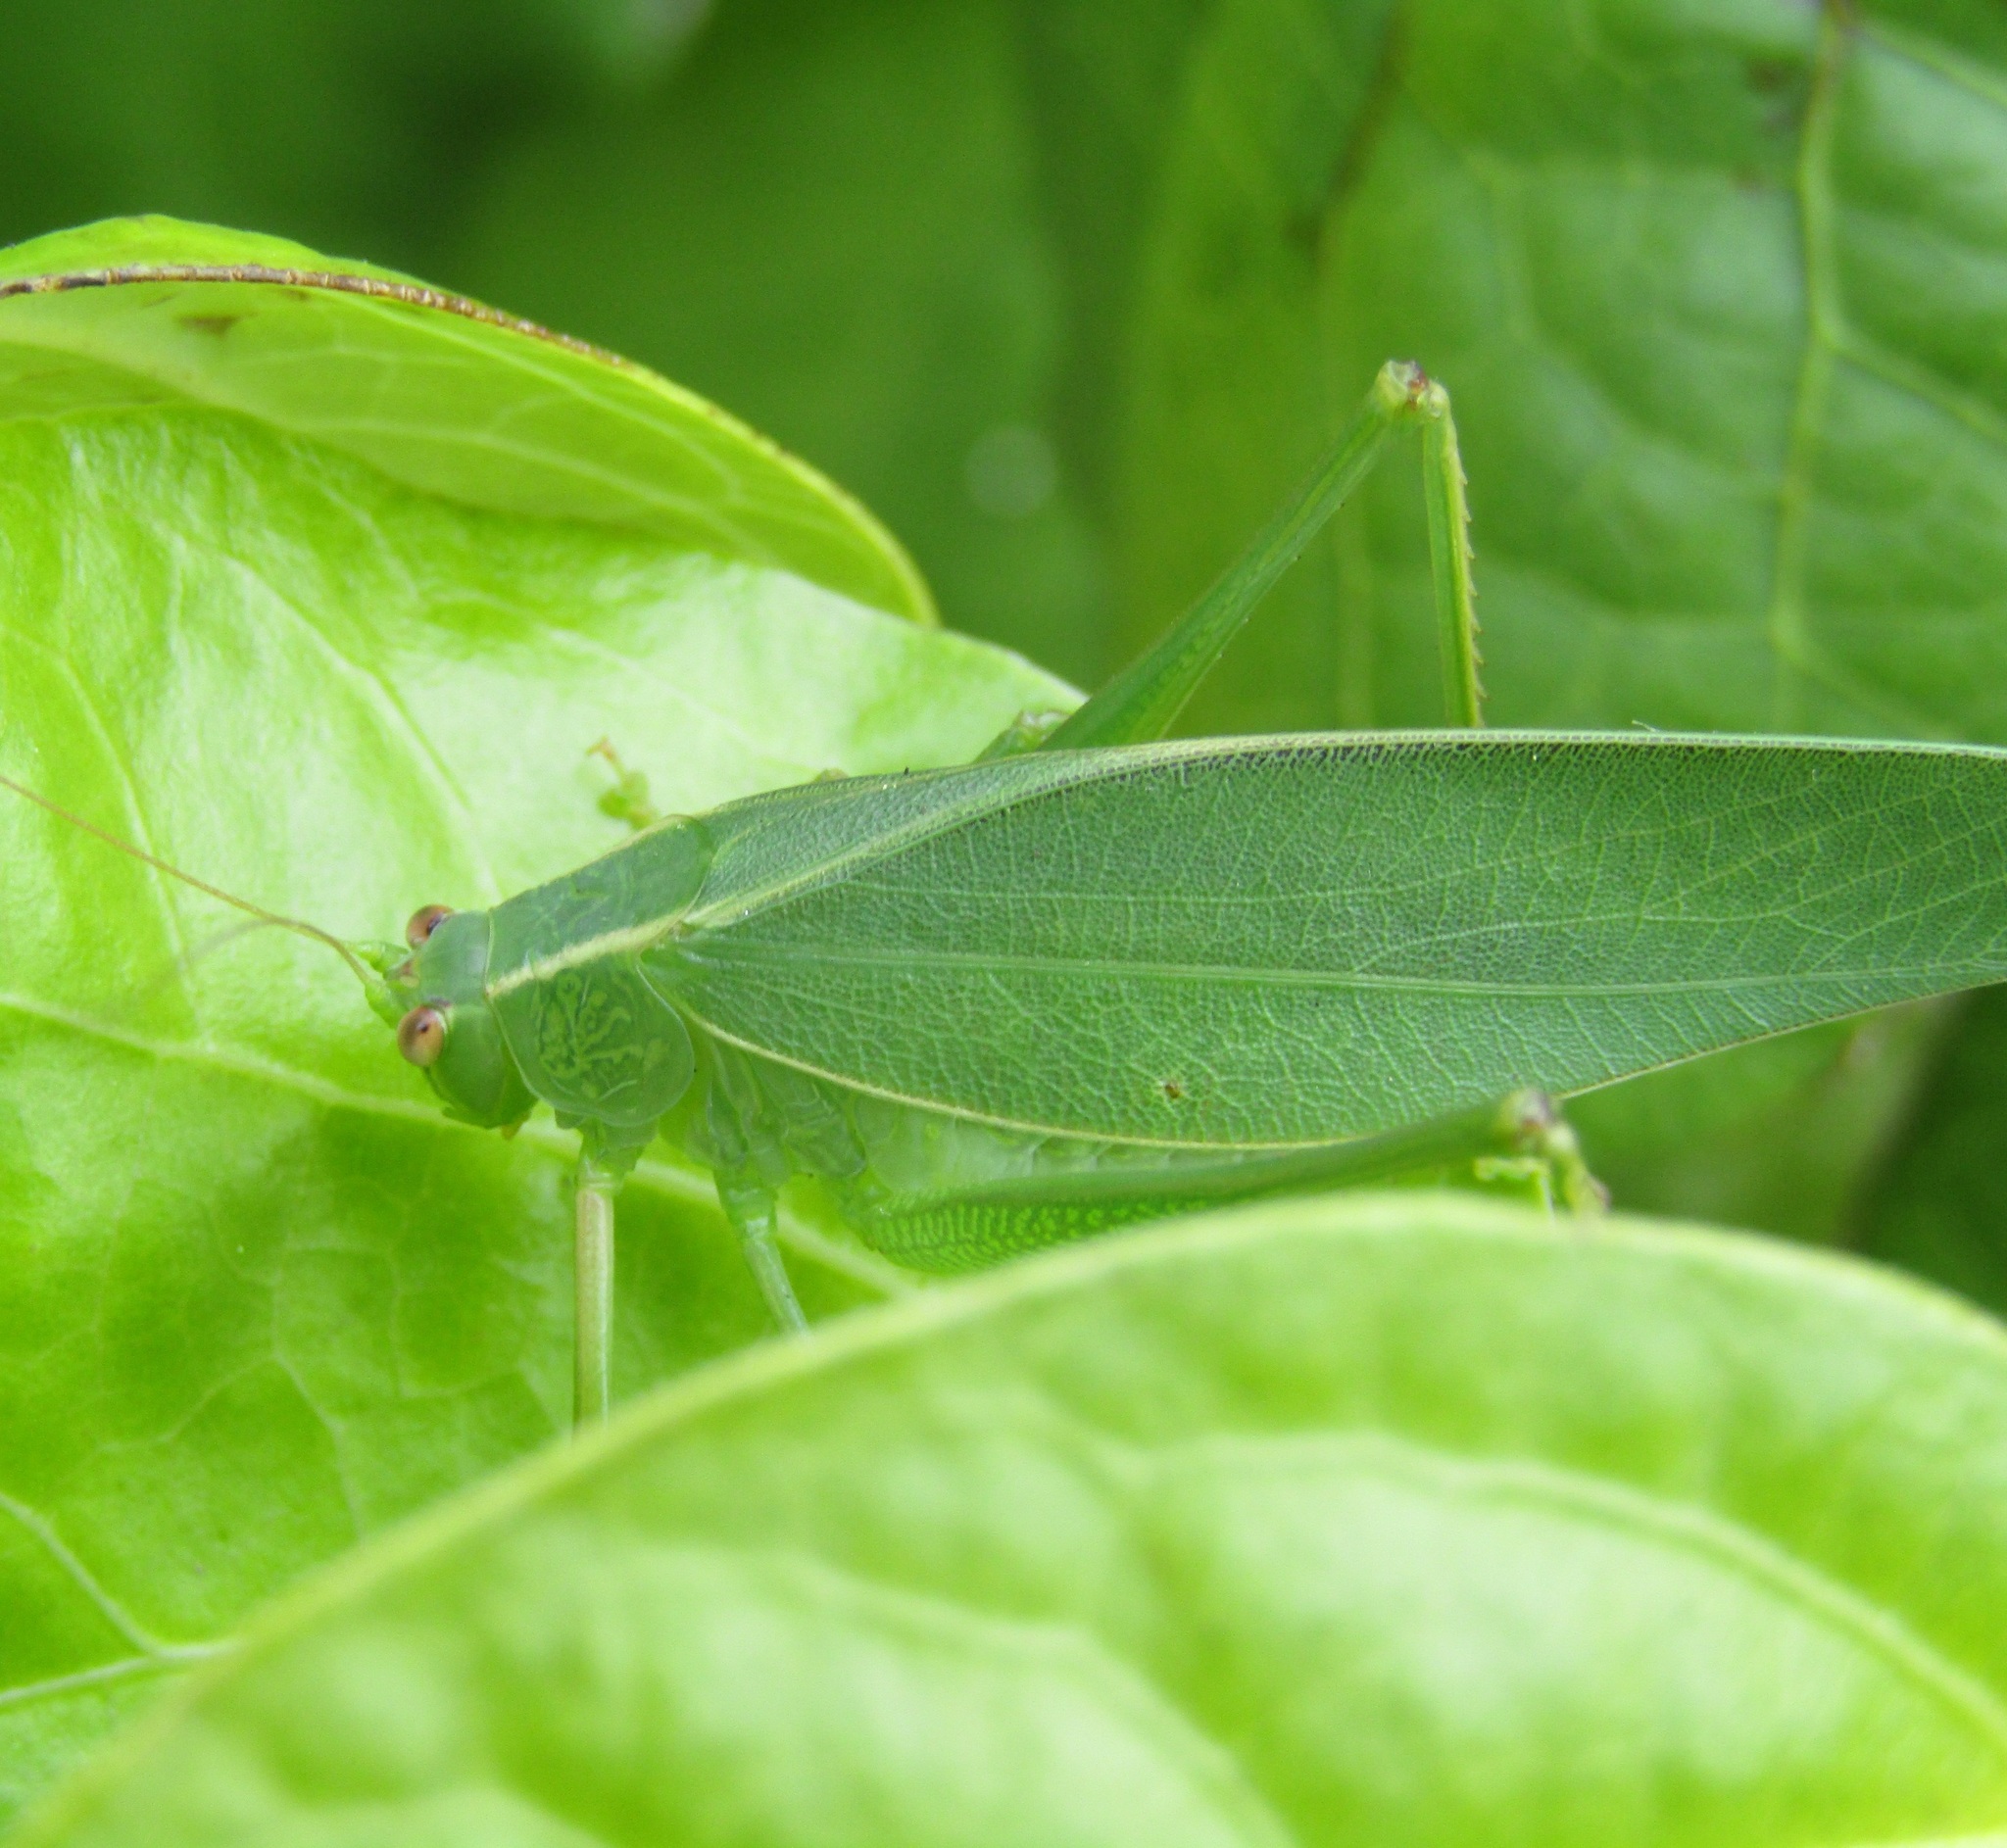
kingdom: Animalia
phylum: Arthropoda
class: Insecta
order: Orthoptera
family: Tettigoniidae
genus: Caedicia
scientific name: Caedicia simplex
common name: Common garden katydid
